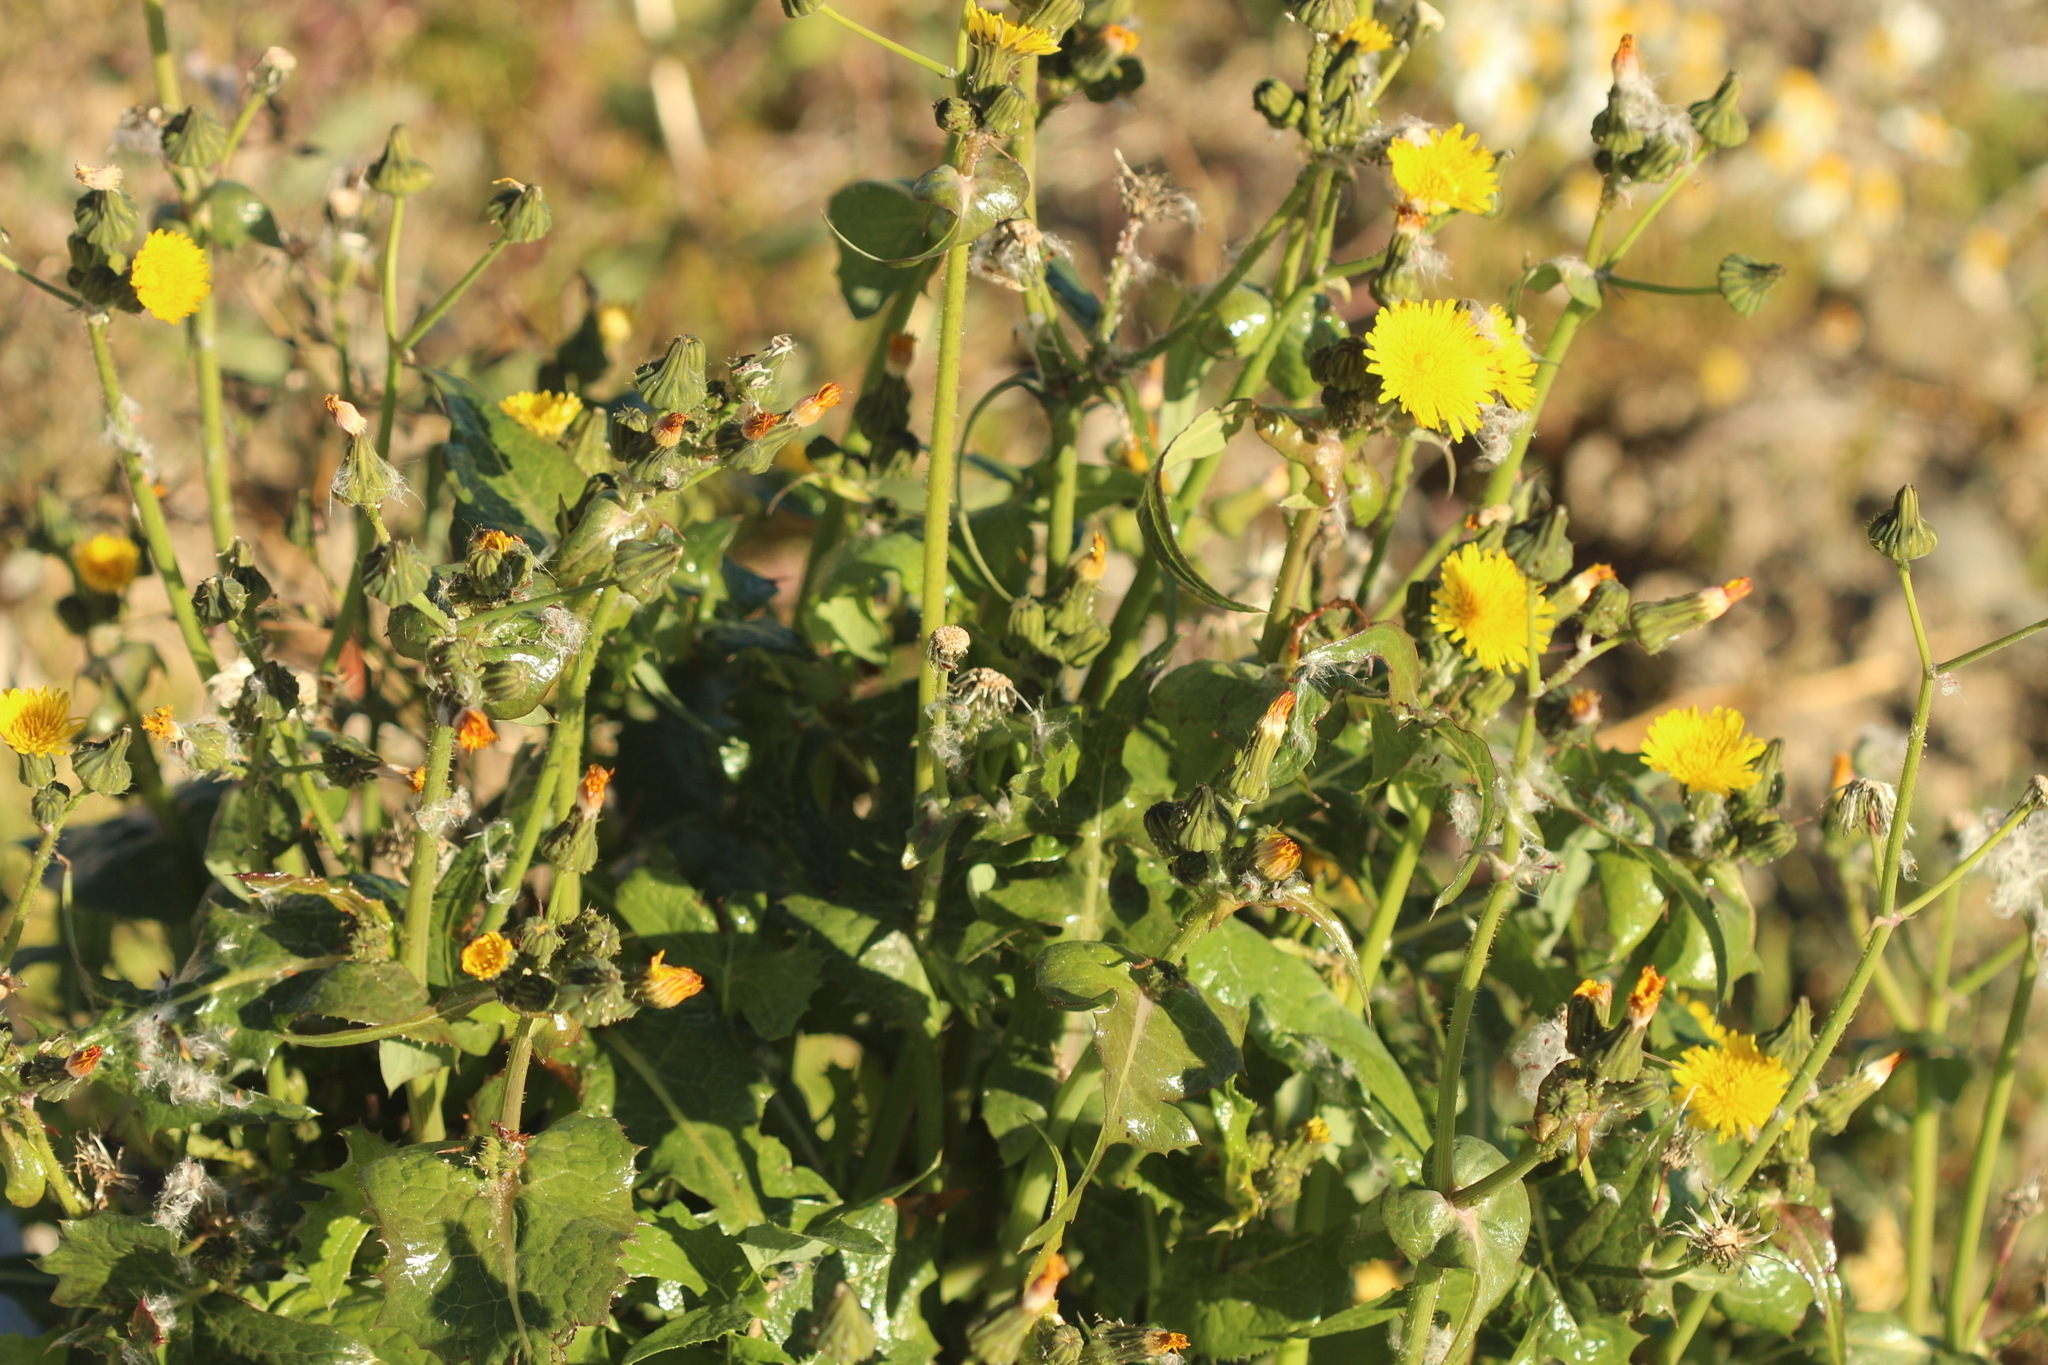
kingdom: Plantae
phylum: Tracheophyta
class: Magnoliopsida
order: Asterales
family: Asteraceae
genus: Sonchus
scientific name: Sonchus oleraceus
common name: Common sowthistle
